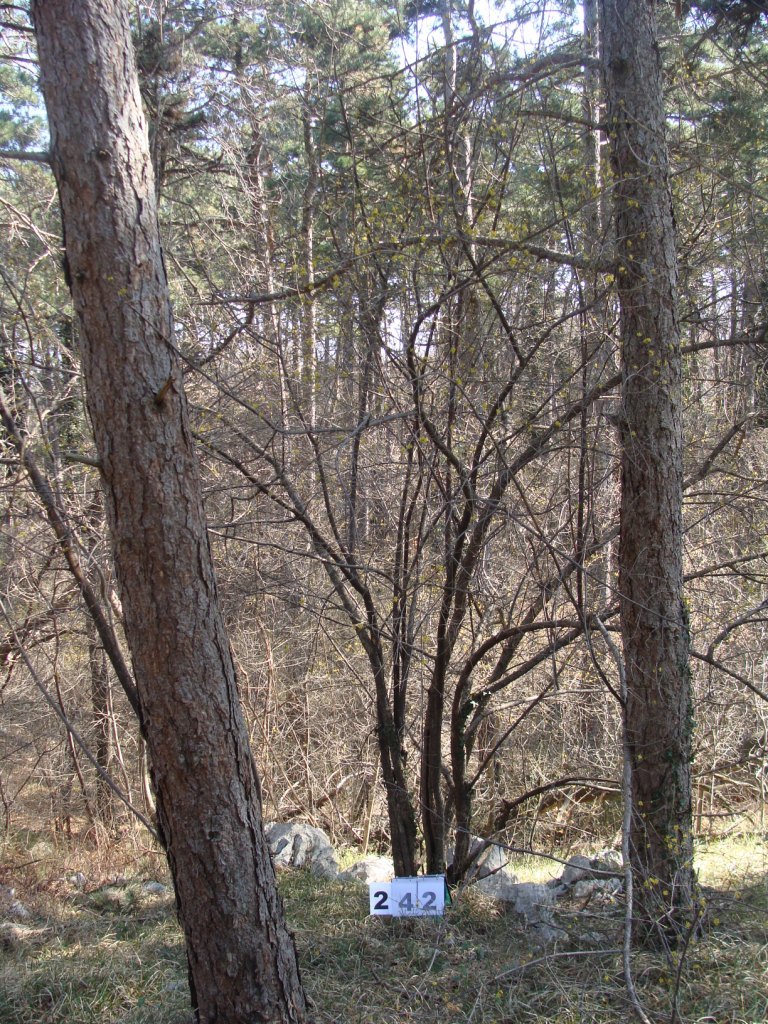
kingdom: Plantae
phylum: Tracheophyta
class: Magnoliopsida
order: Cornales
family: Cornaceae
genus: Cornus
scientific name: Cornus mas
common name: Cornelian-cherry
